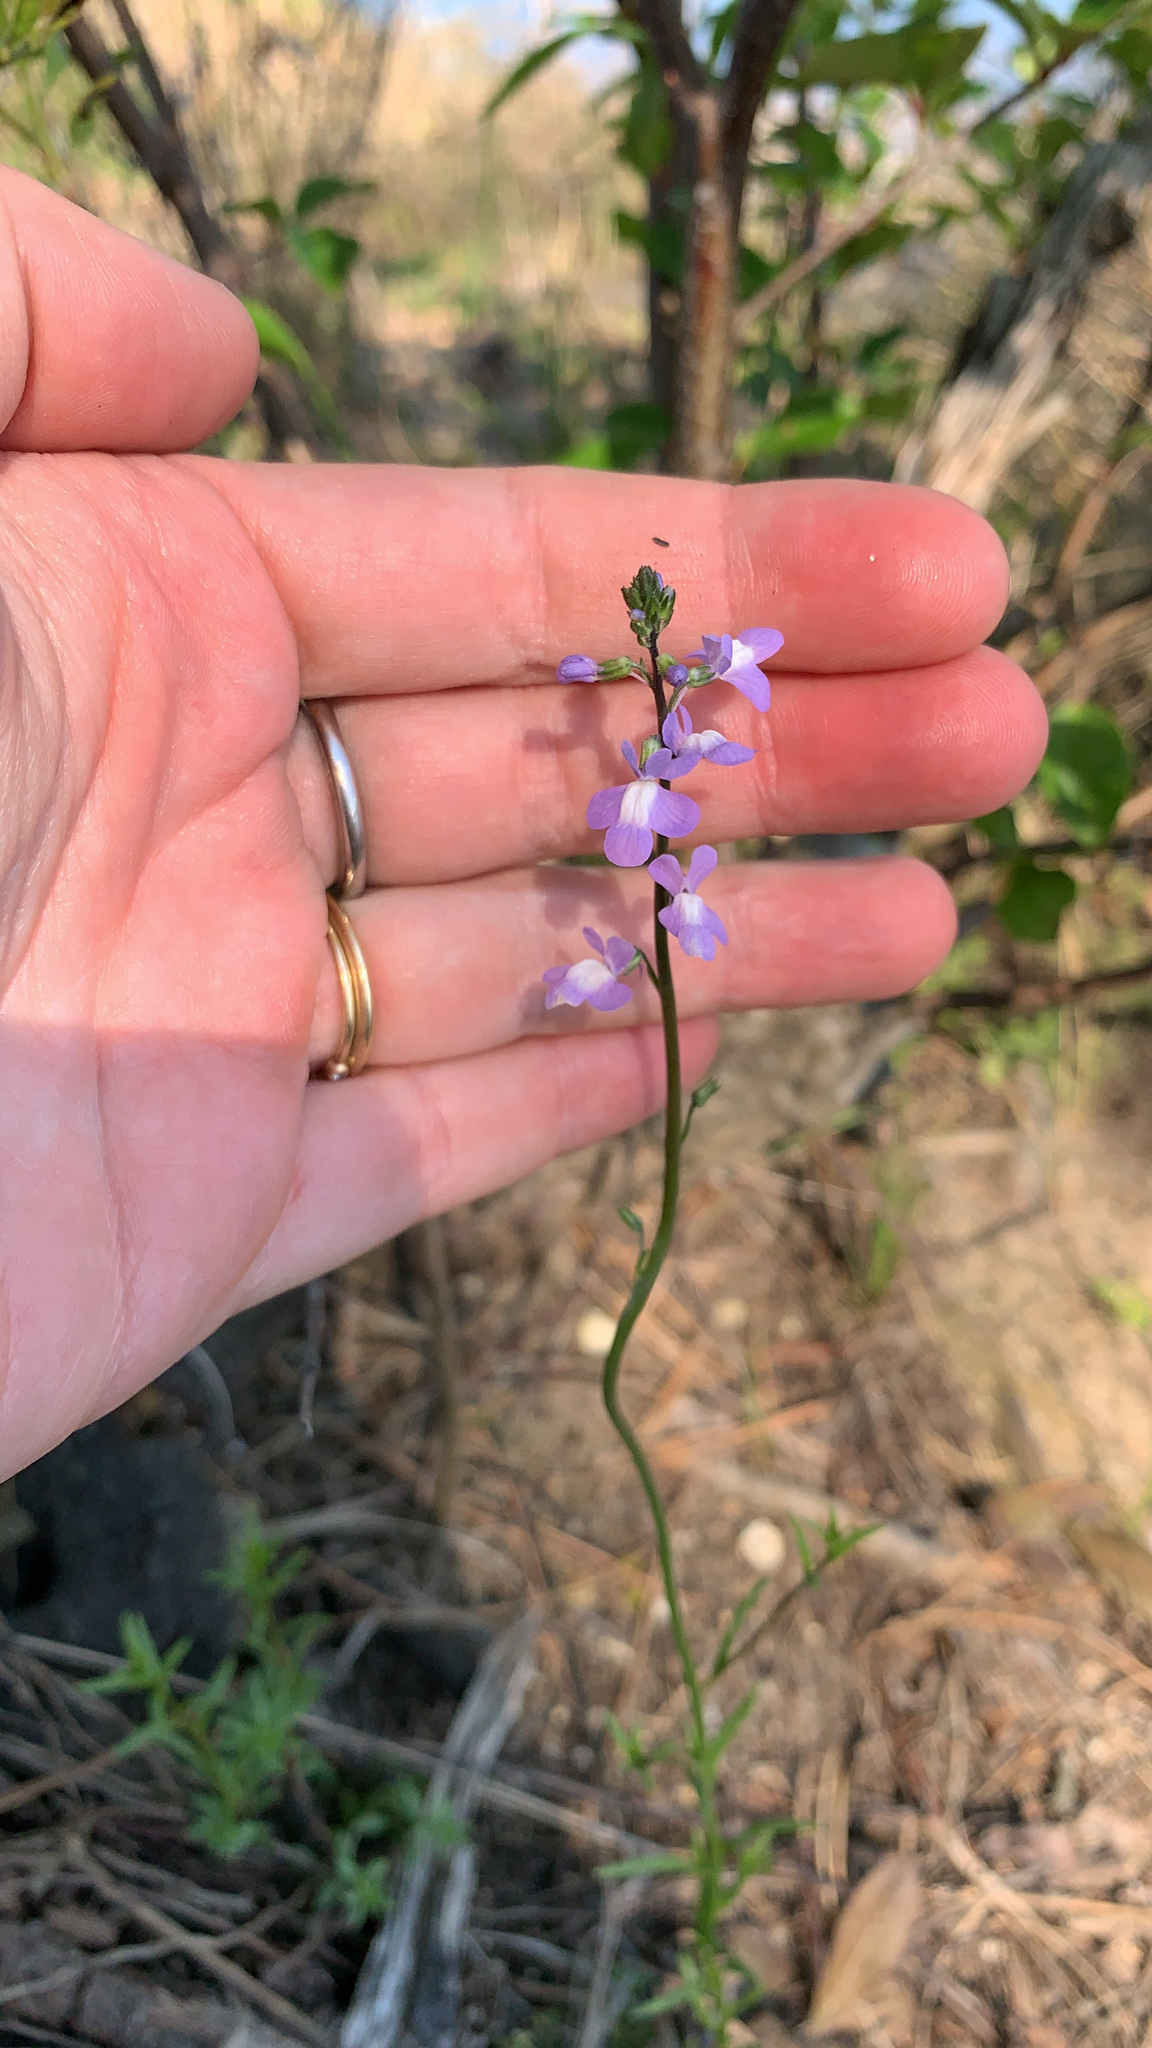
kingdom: Plantae
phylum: Tracheophyta
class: Magnoliopsida
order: Lamiales
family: Plantaginaceae
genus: Nuttallanthus
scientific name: Nuttallanthus canadensis
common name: Blue toadflax
